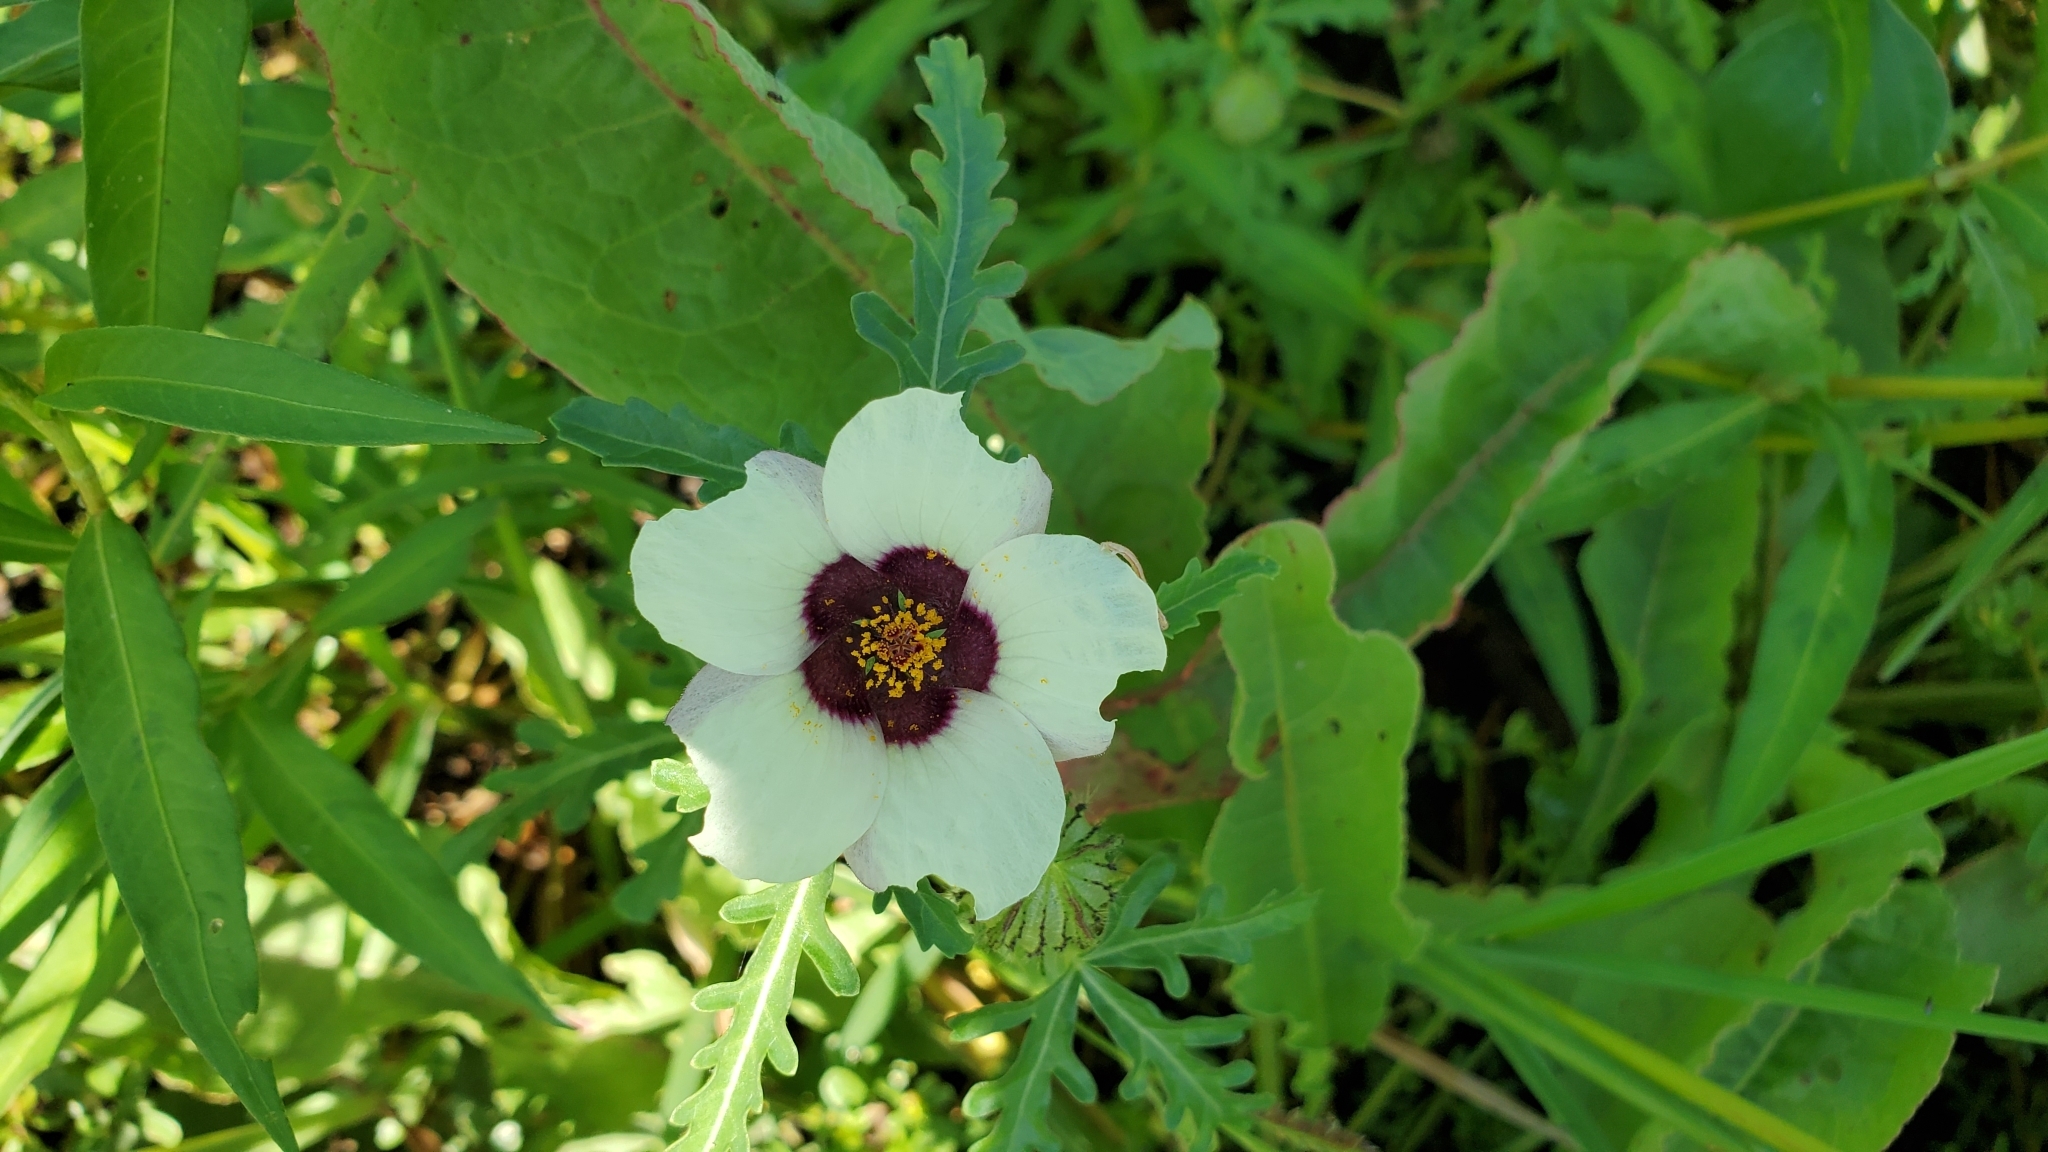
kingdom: Plantae
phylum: Tracheophyta
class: Magnoliopsida
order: Malvales
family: Malvaceae
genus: Hibiscus
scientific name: Hibiscus trionum
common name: Bladder ketmia
